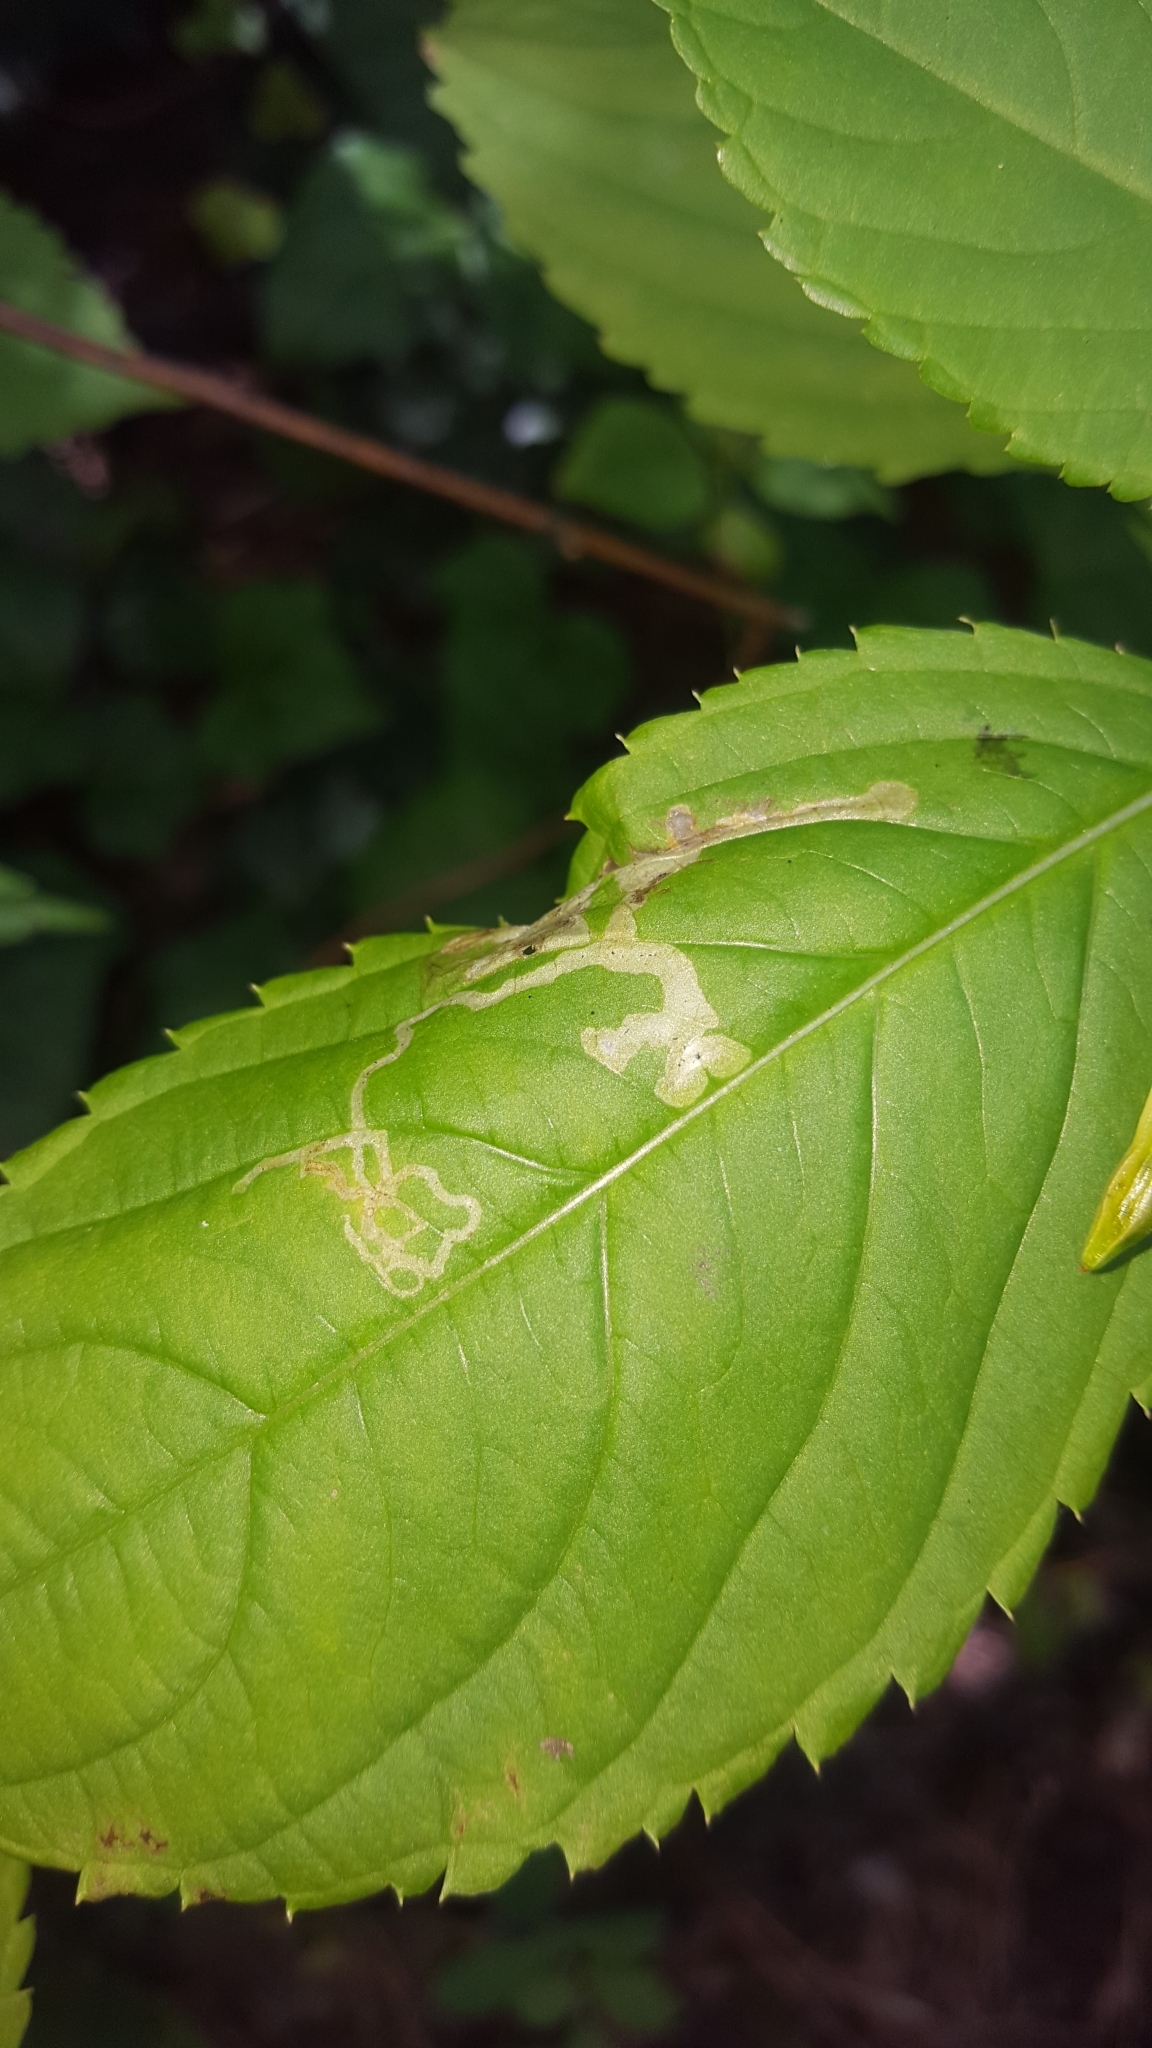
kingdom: Animalia
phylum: Arthropoda
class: Insecta
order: Diptera
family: Agromyzidae
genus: Phytoliriomyza
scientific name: Phytoliriomyza melampyga
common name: Jewelweed leaf-miner fly
